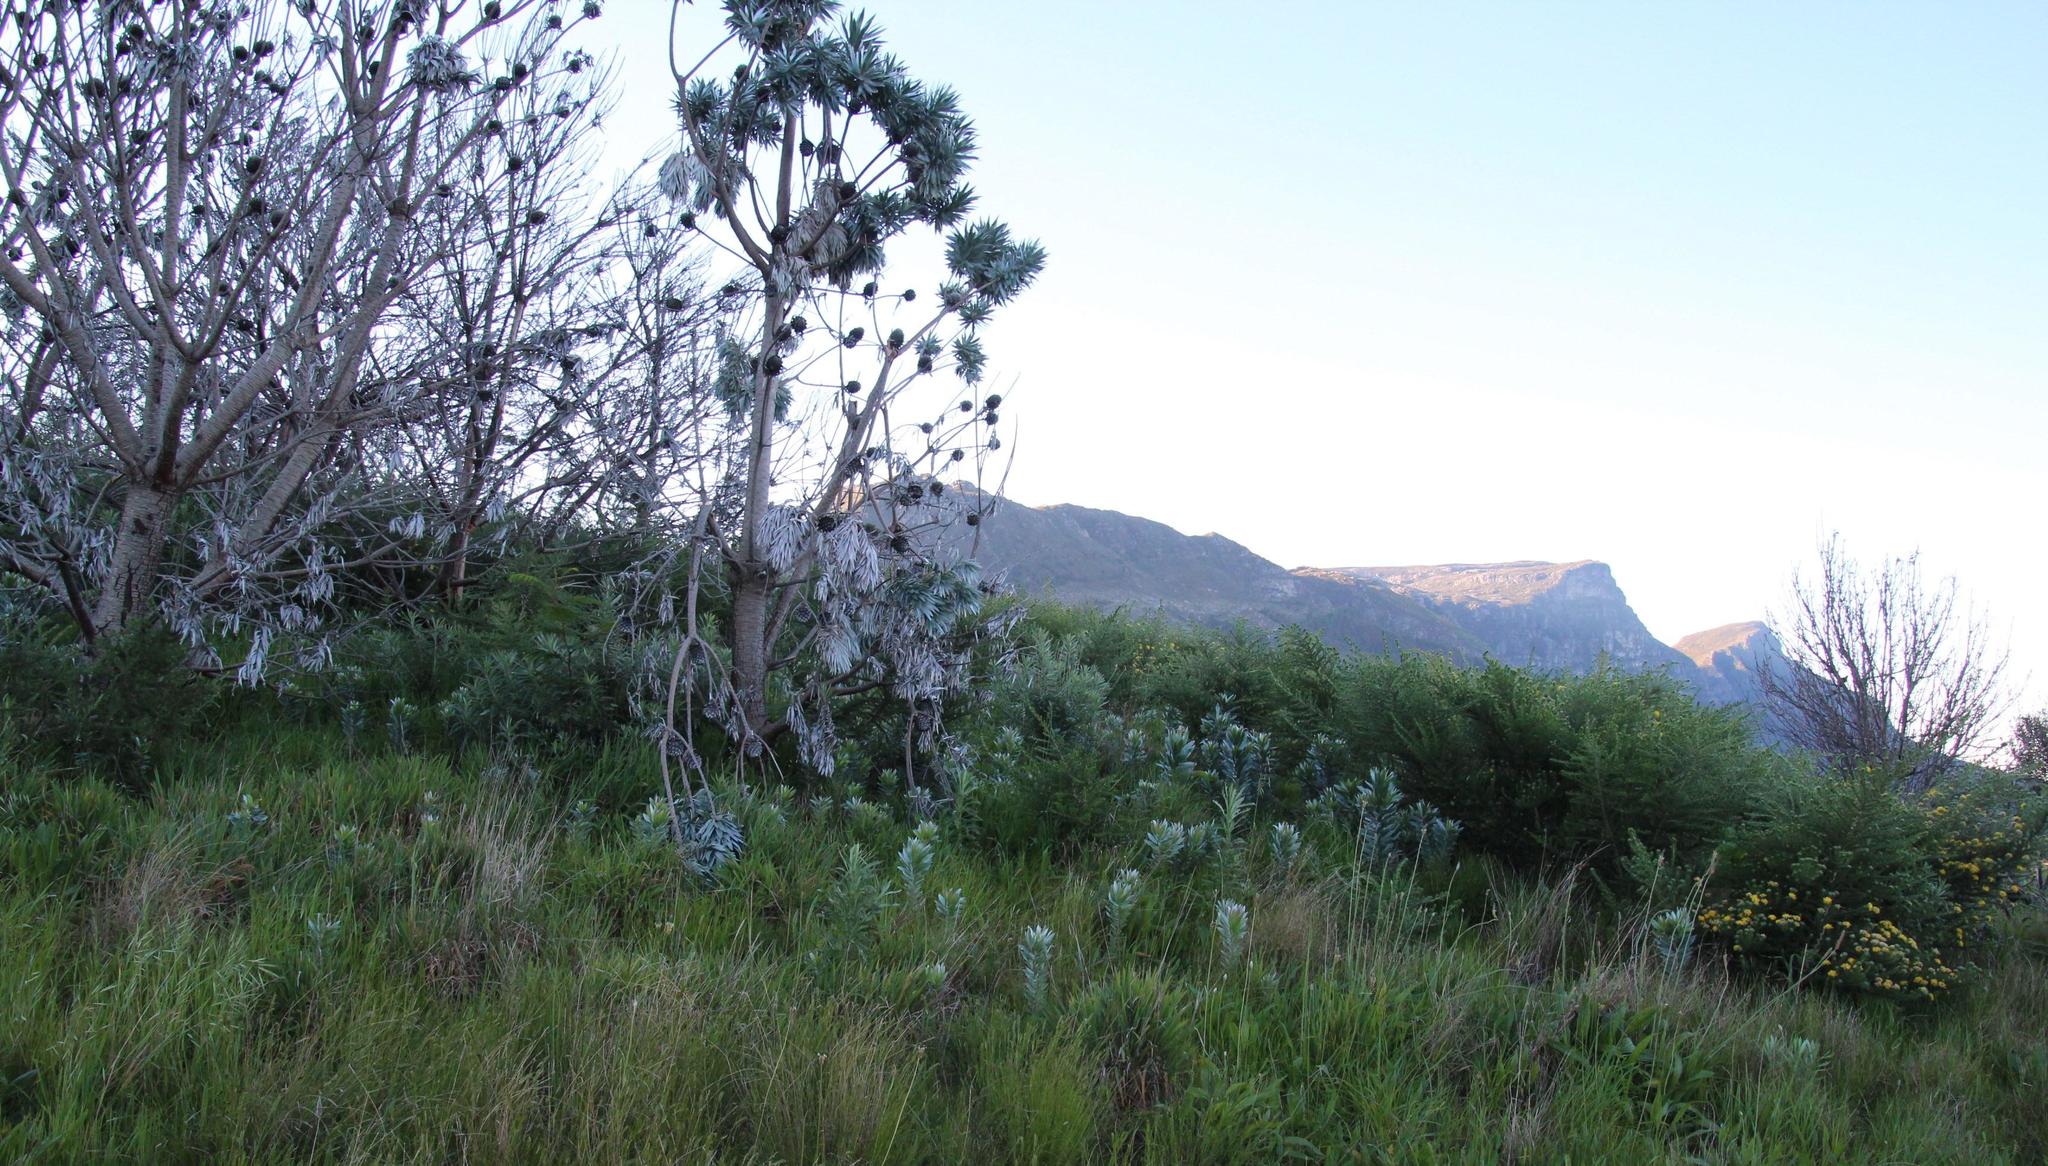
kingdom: Plantae
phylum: Tracheophyta
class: Magnoliopsida
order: Proteales
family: Proteaceae
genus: Leucadendron
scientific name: Leucadendron argenteum
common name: Cape silver tree
